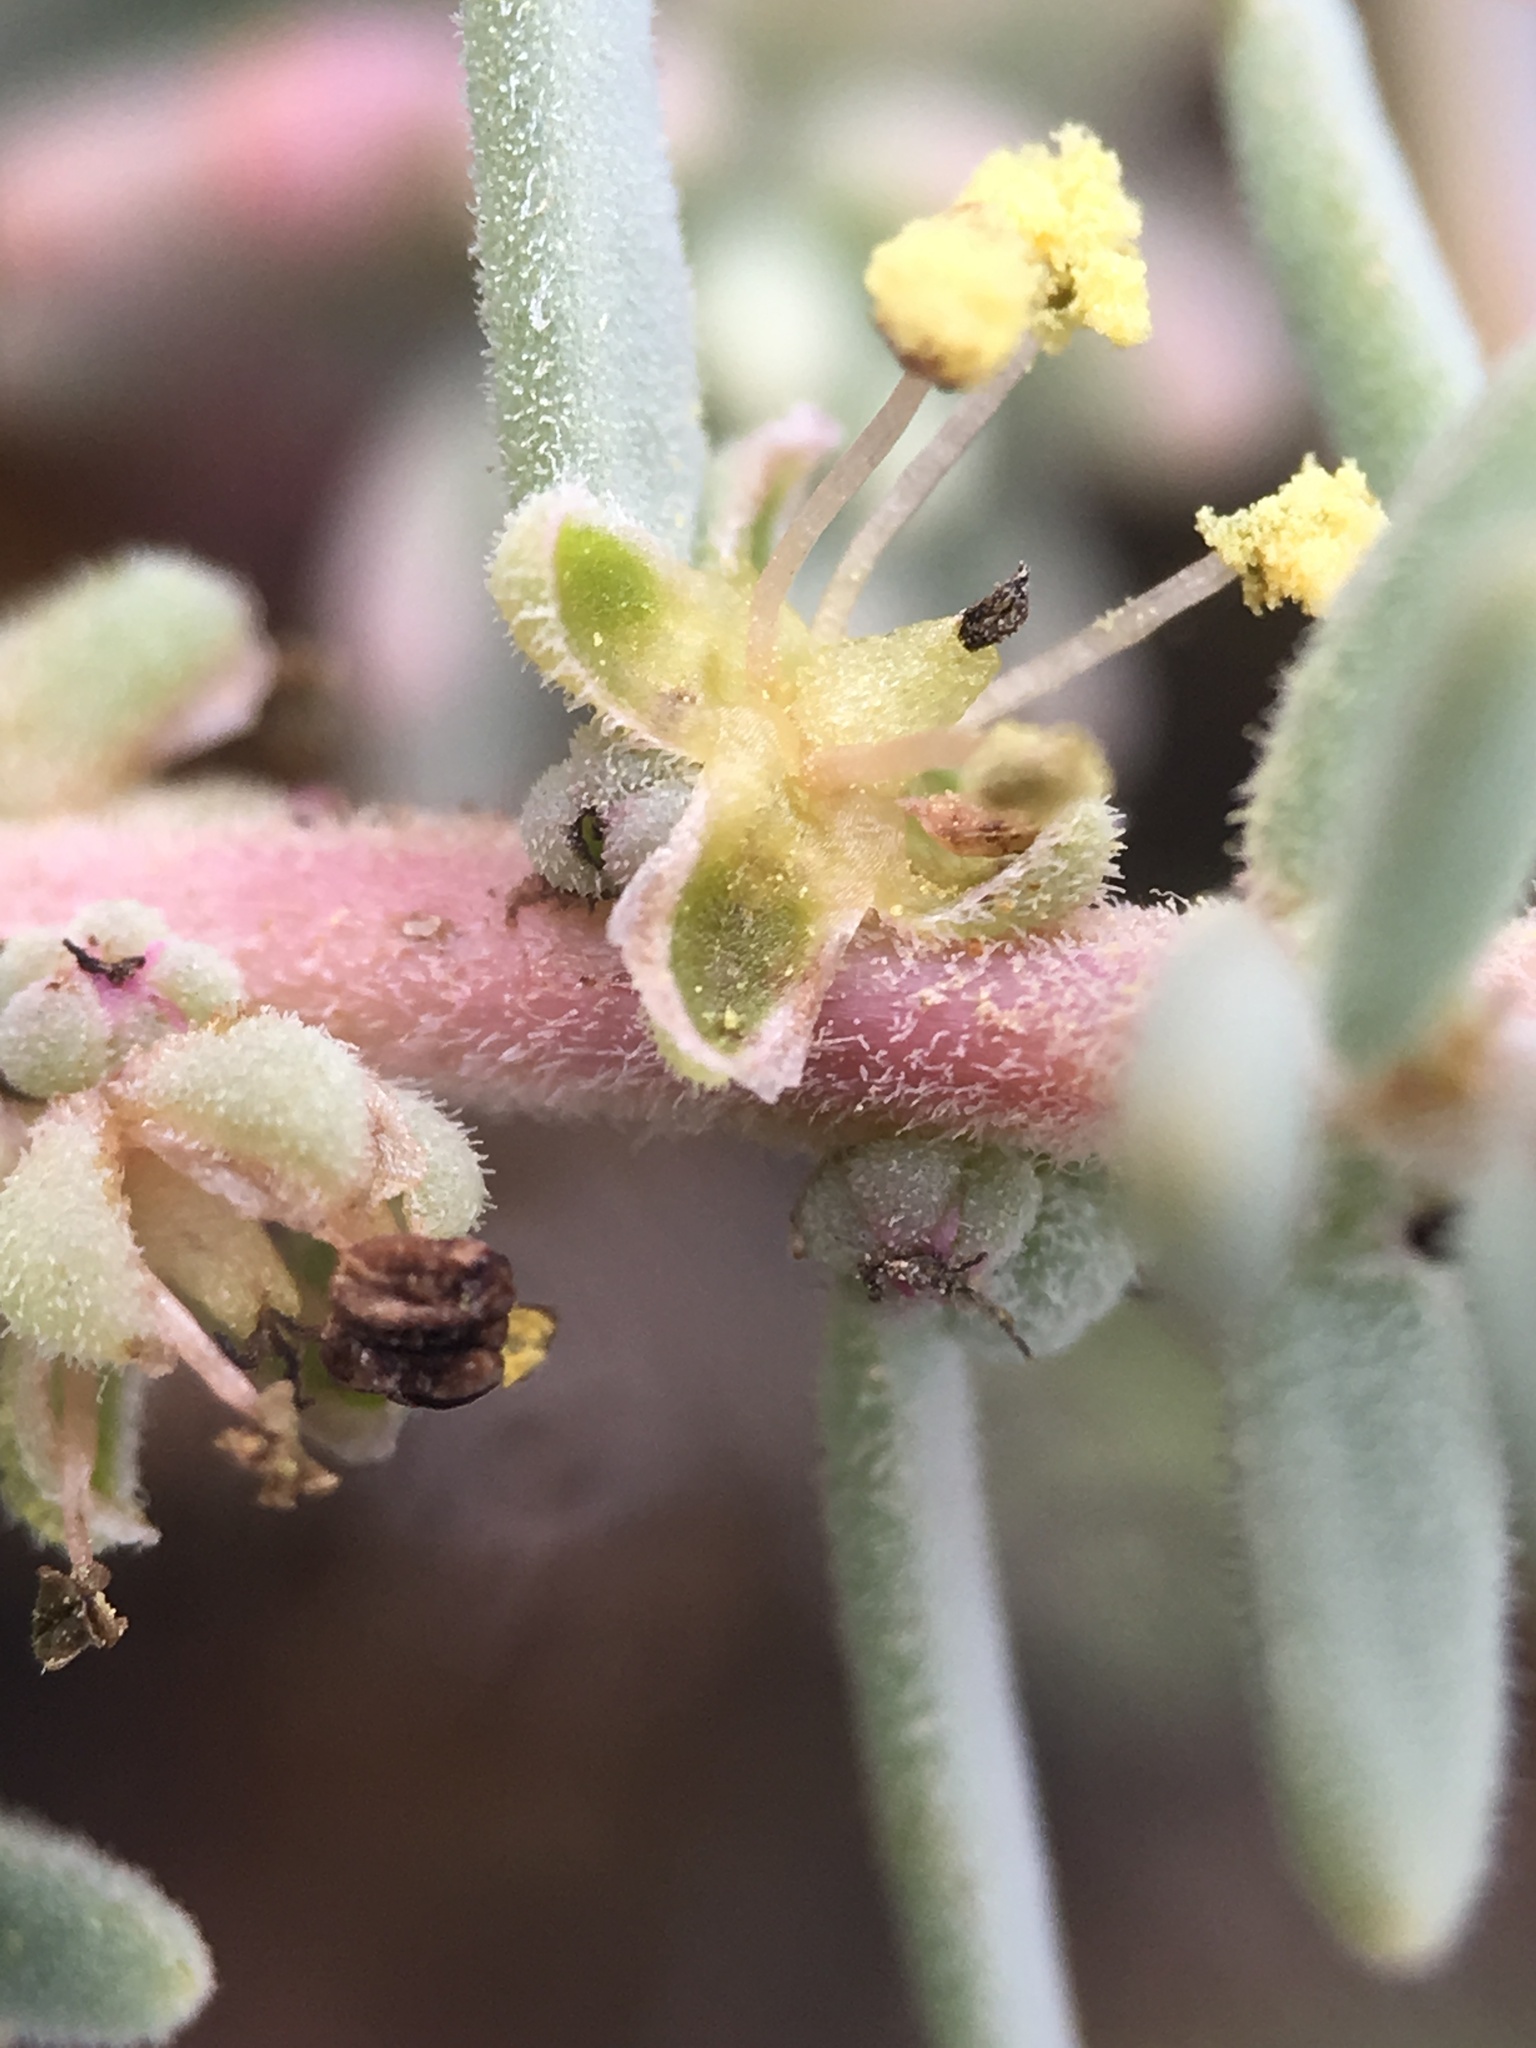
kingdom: Plantae
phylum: Tracheophyta
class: Magnoliopsida
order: Caryophyllales
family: Amaranthaceae
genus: Suaeda
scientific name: Suaeda taxifolia
